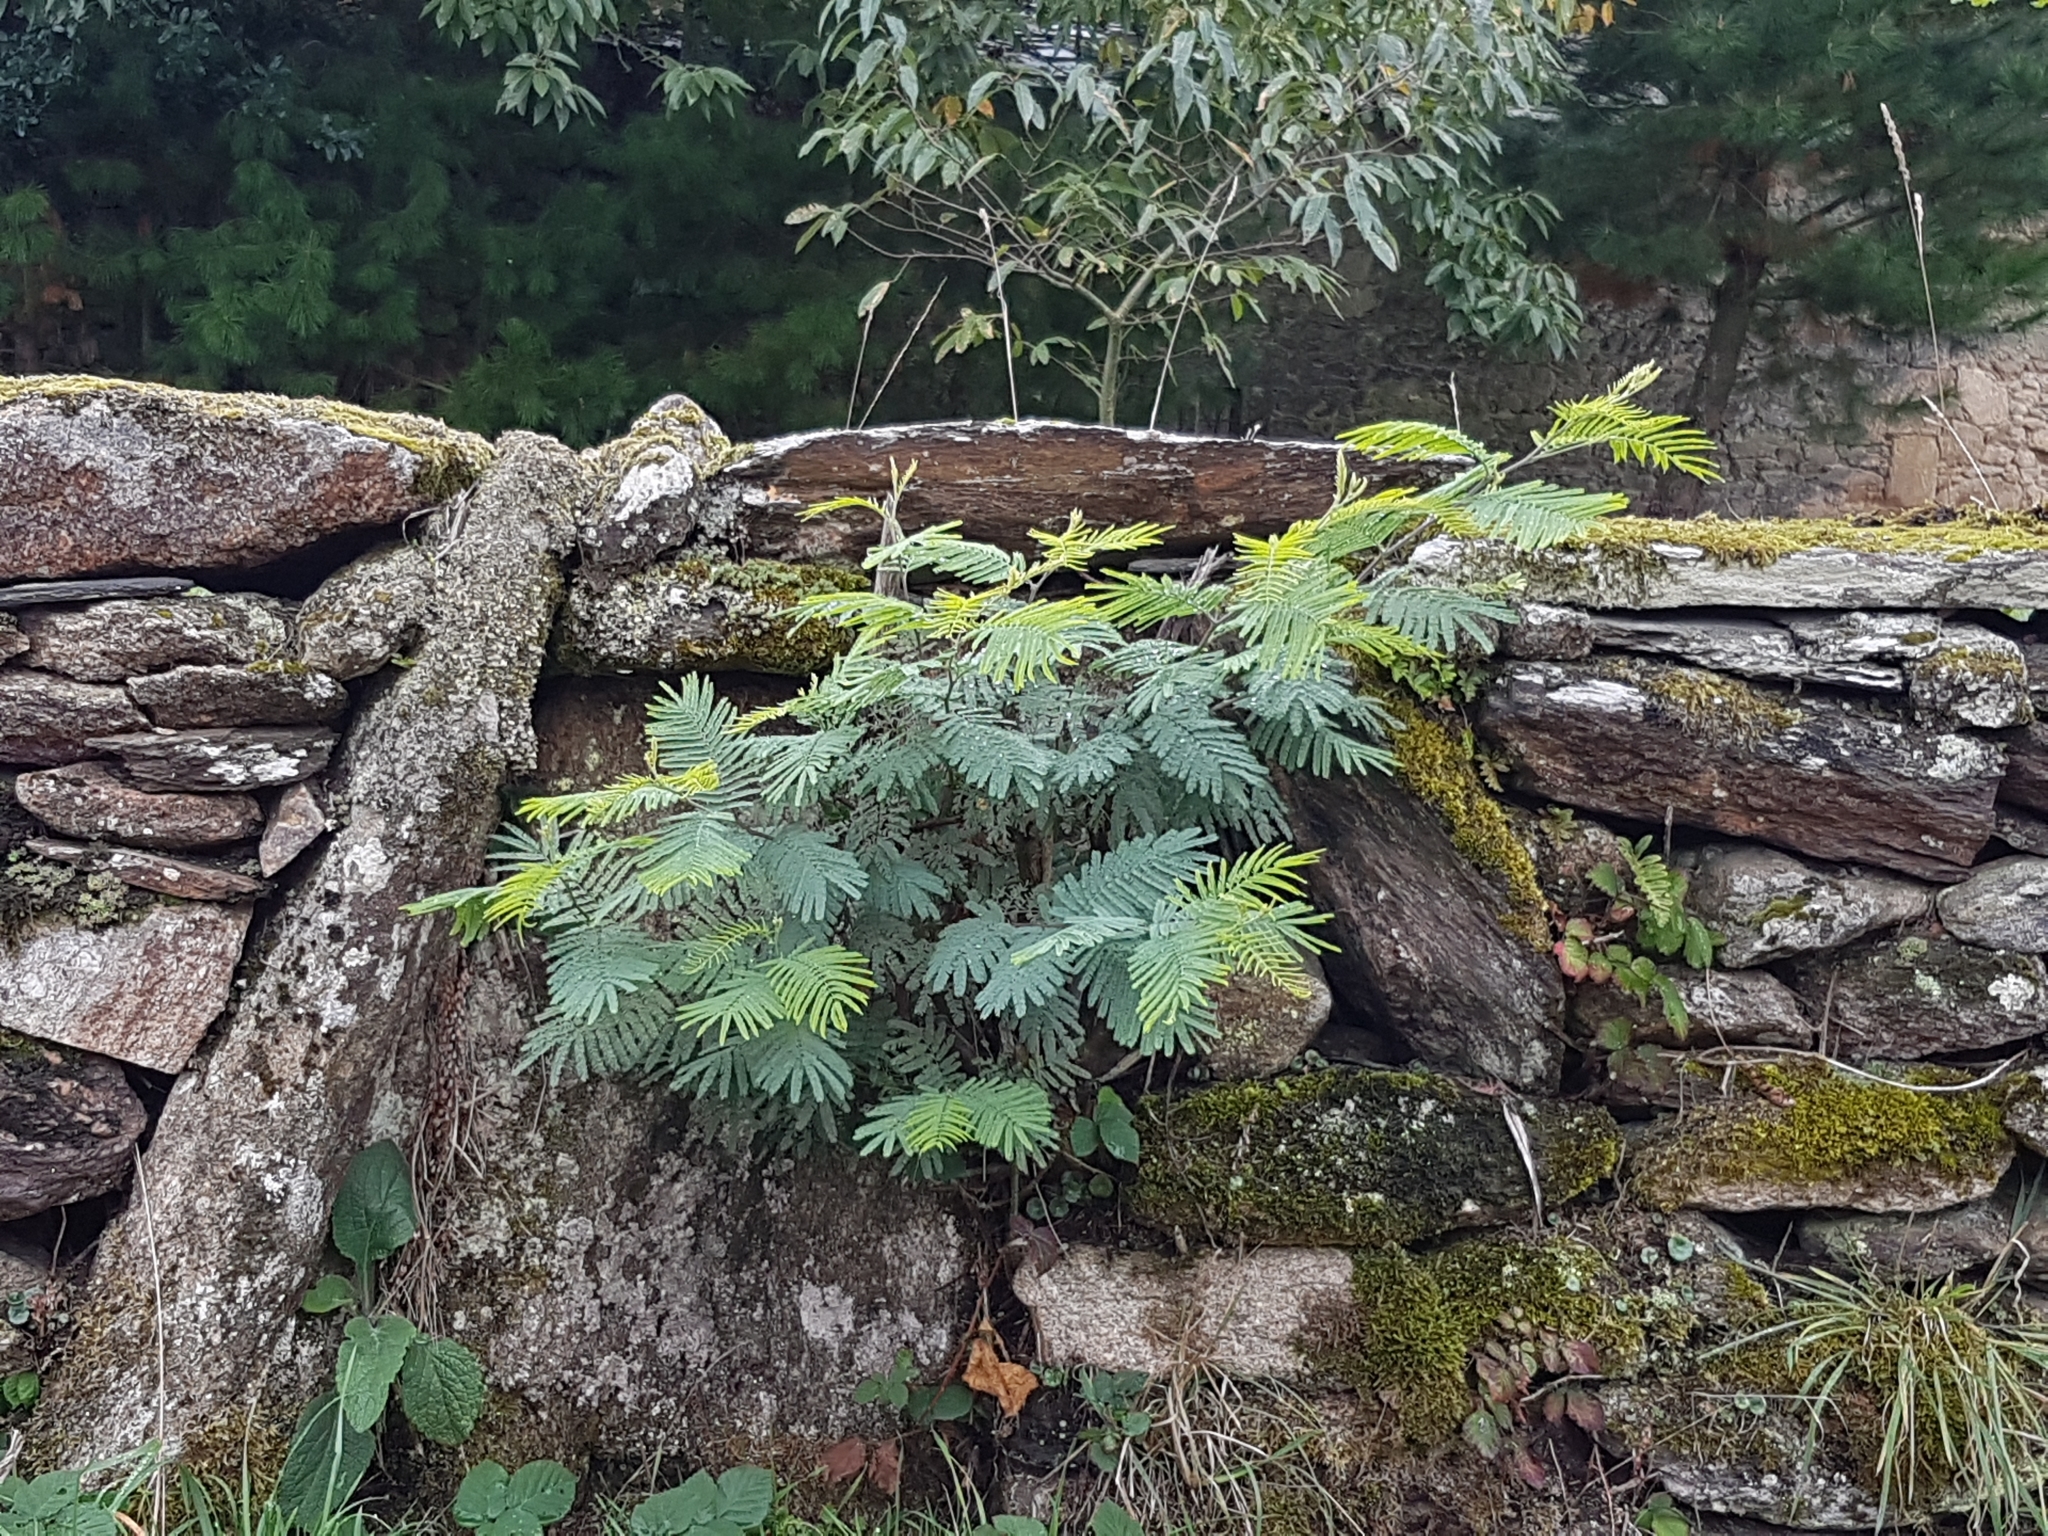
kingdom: Plantae
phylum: Tracheophyta
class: Magnoliopsida
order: Fabales
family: Fabaceae
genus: Acacia
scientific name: Acacia dealbata
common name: Silver wattle
